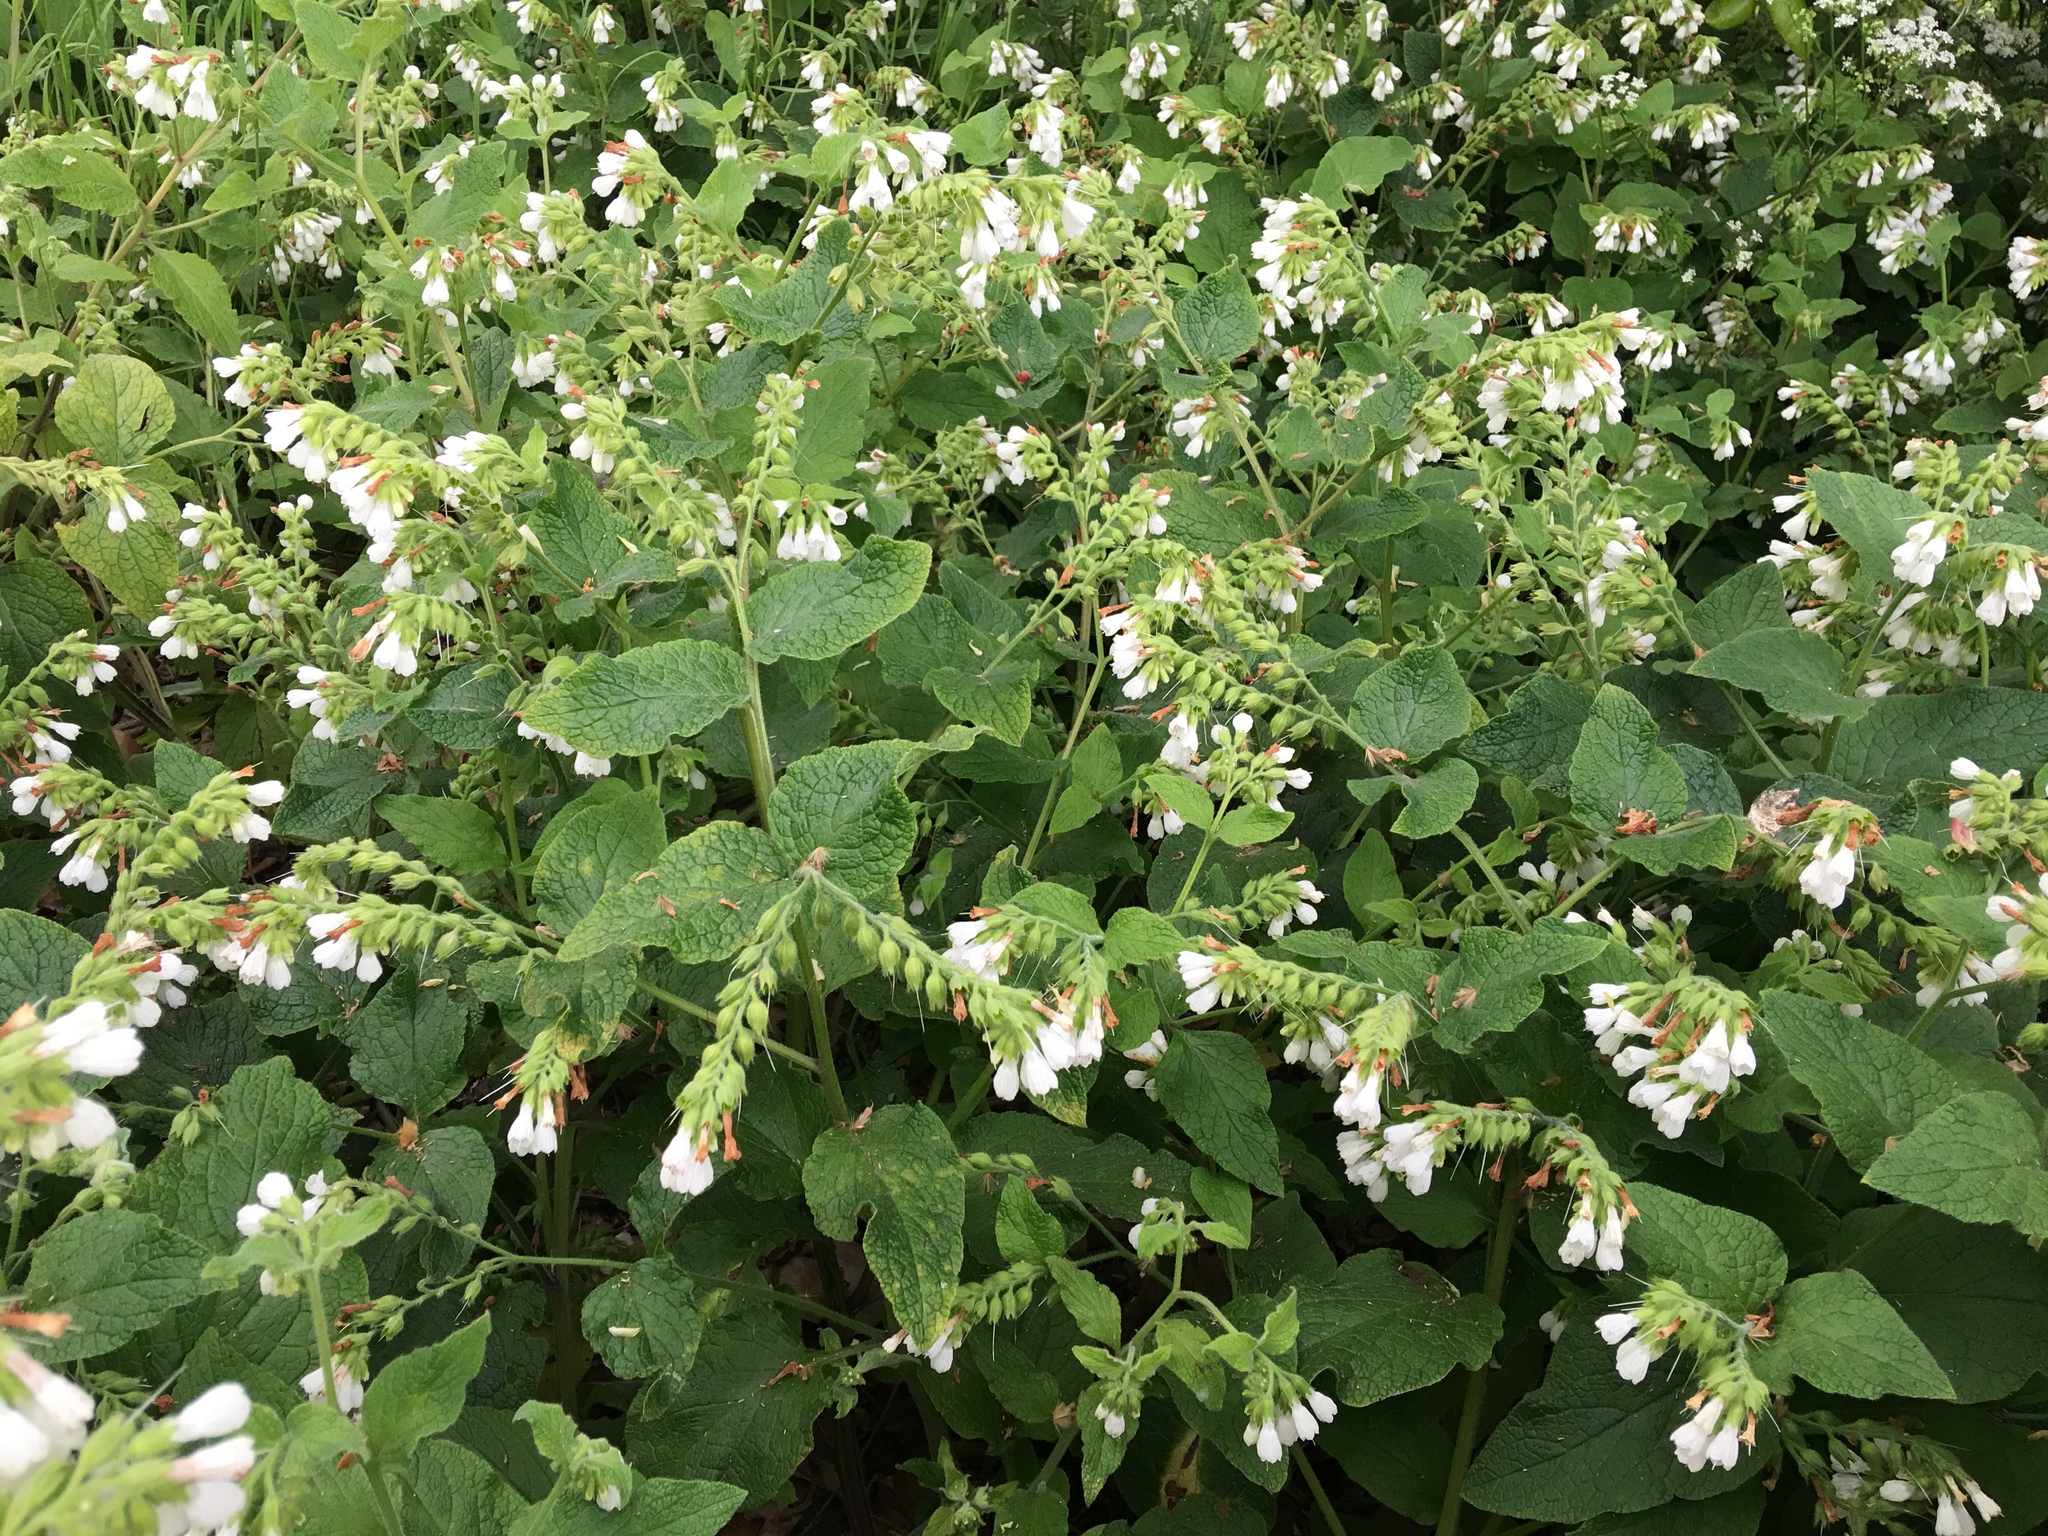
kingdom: Plantae
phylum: Tracheophyta
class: Magnoliopsida
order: Boraginales
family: Boraginaceae
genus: Symphytum
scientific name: Symphytum orientale
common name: White comfrey
